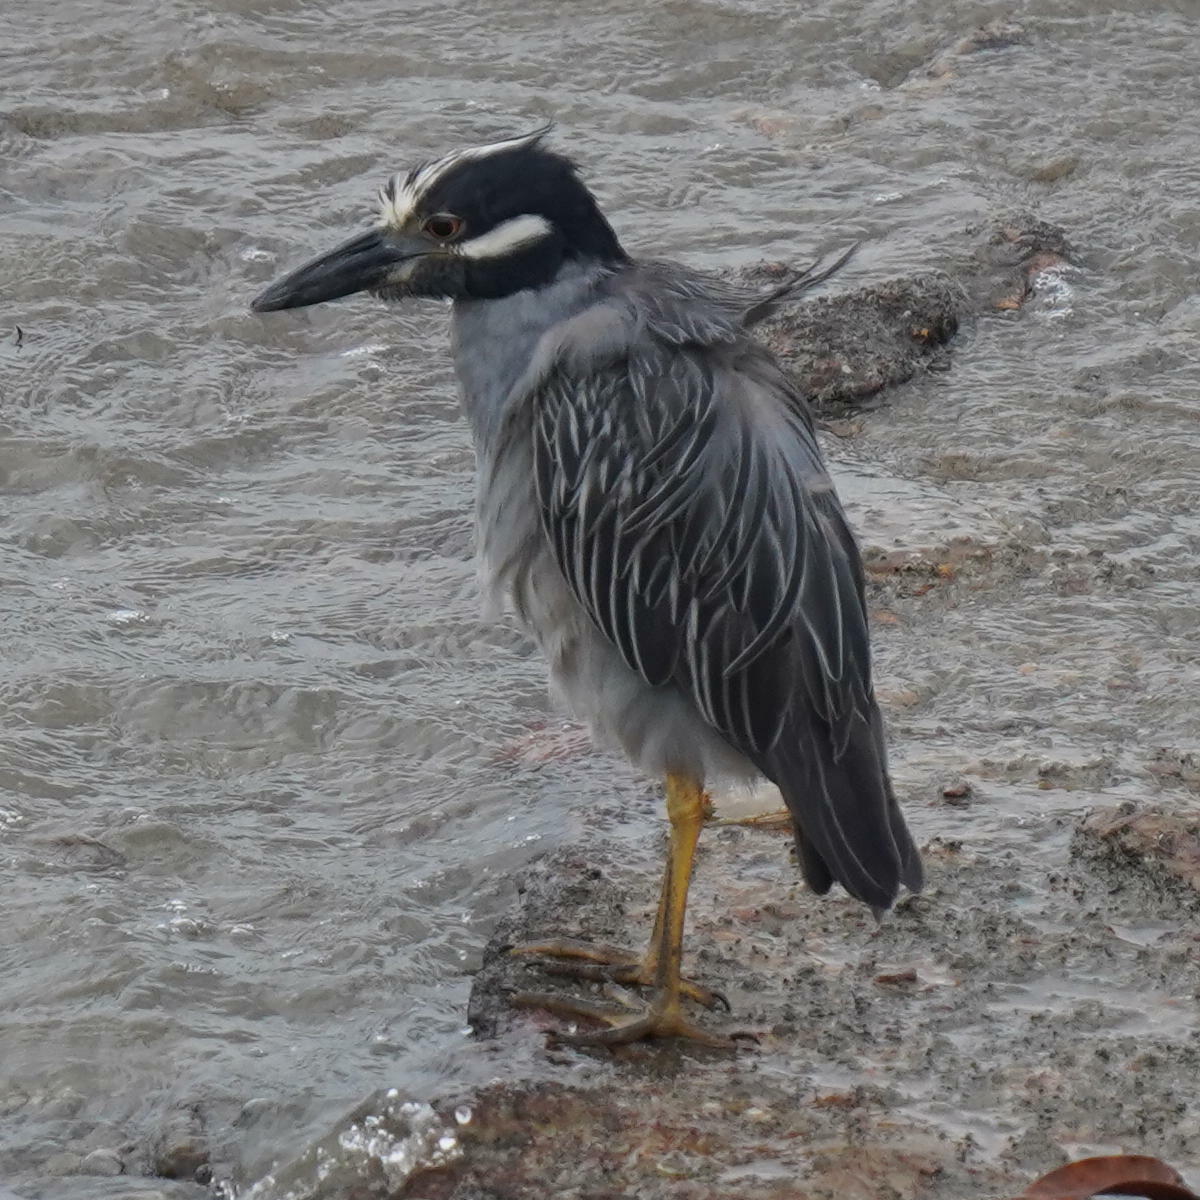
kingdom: Animalia
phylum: Chordata
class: Aves
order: Pelecaniformes
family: Ardeidae
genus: Nyctanassa
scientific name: Nyctanassa violacea
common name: Yellow-crowned night heron
